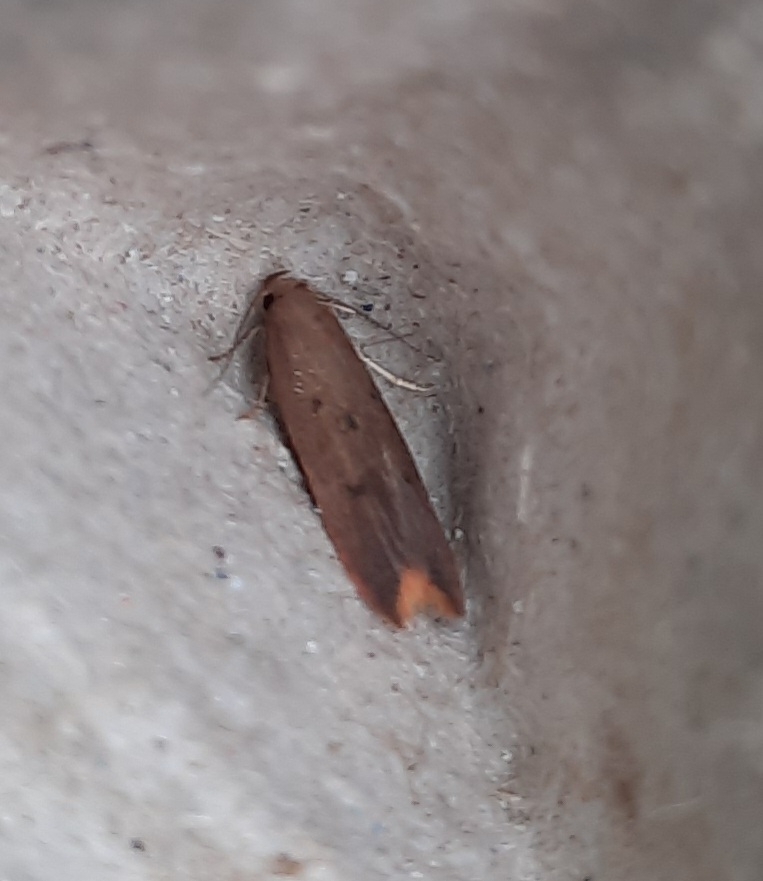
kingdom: Animalia
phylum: Arthropoda
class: Insecta
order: Lepidoptera
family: Oecophoridae
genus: Tachystola
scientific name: Tachystola acroxantha
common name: Ruddy streak
